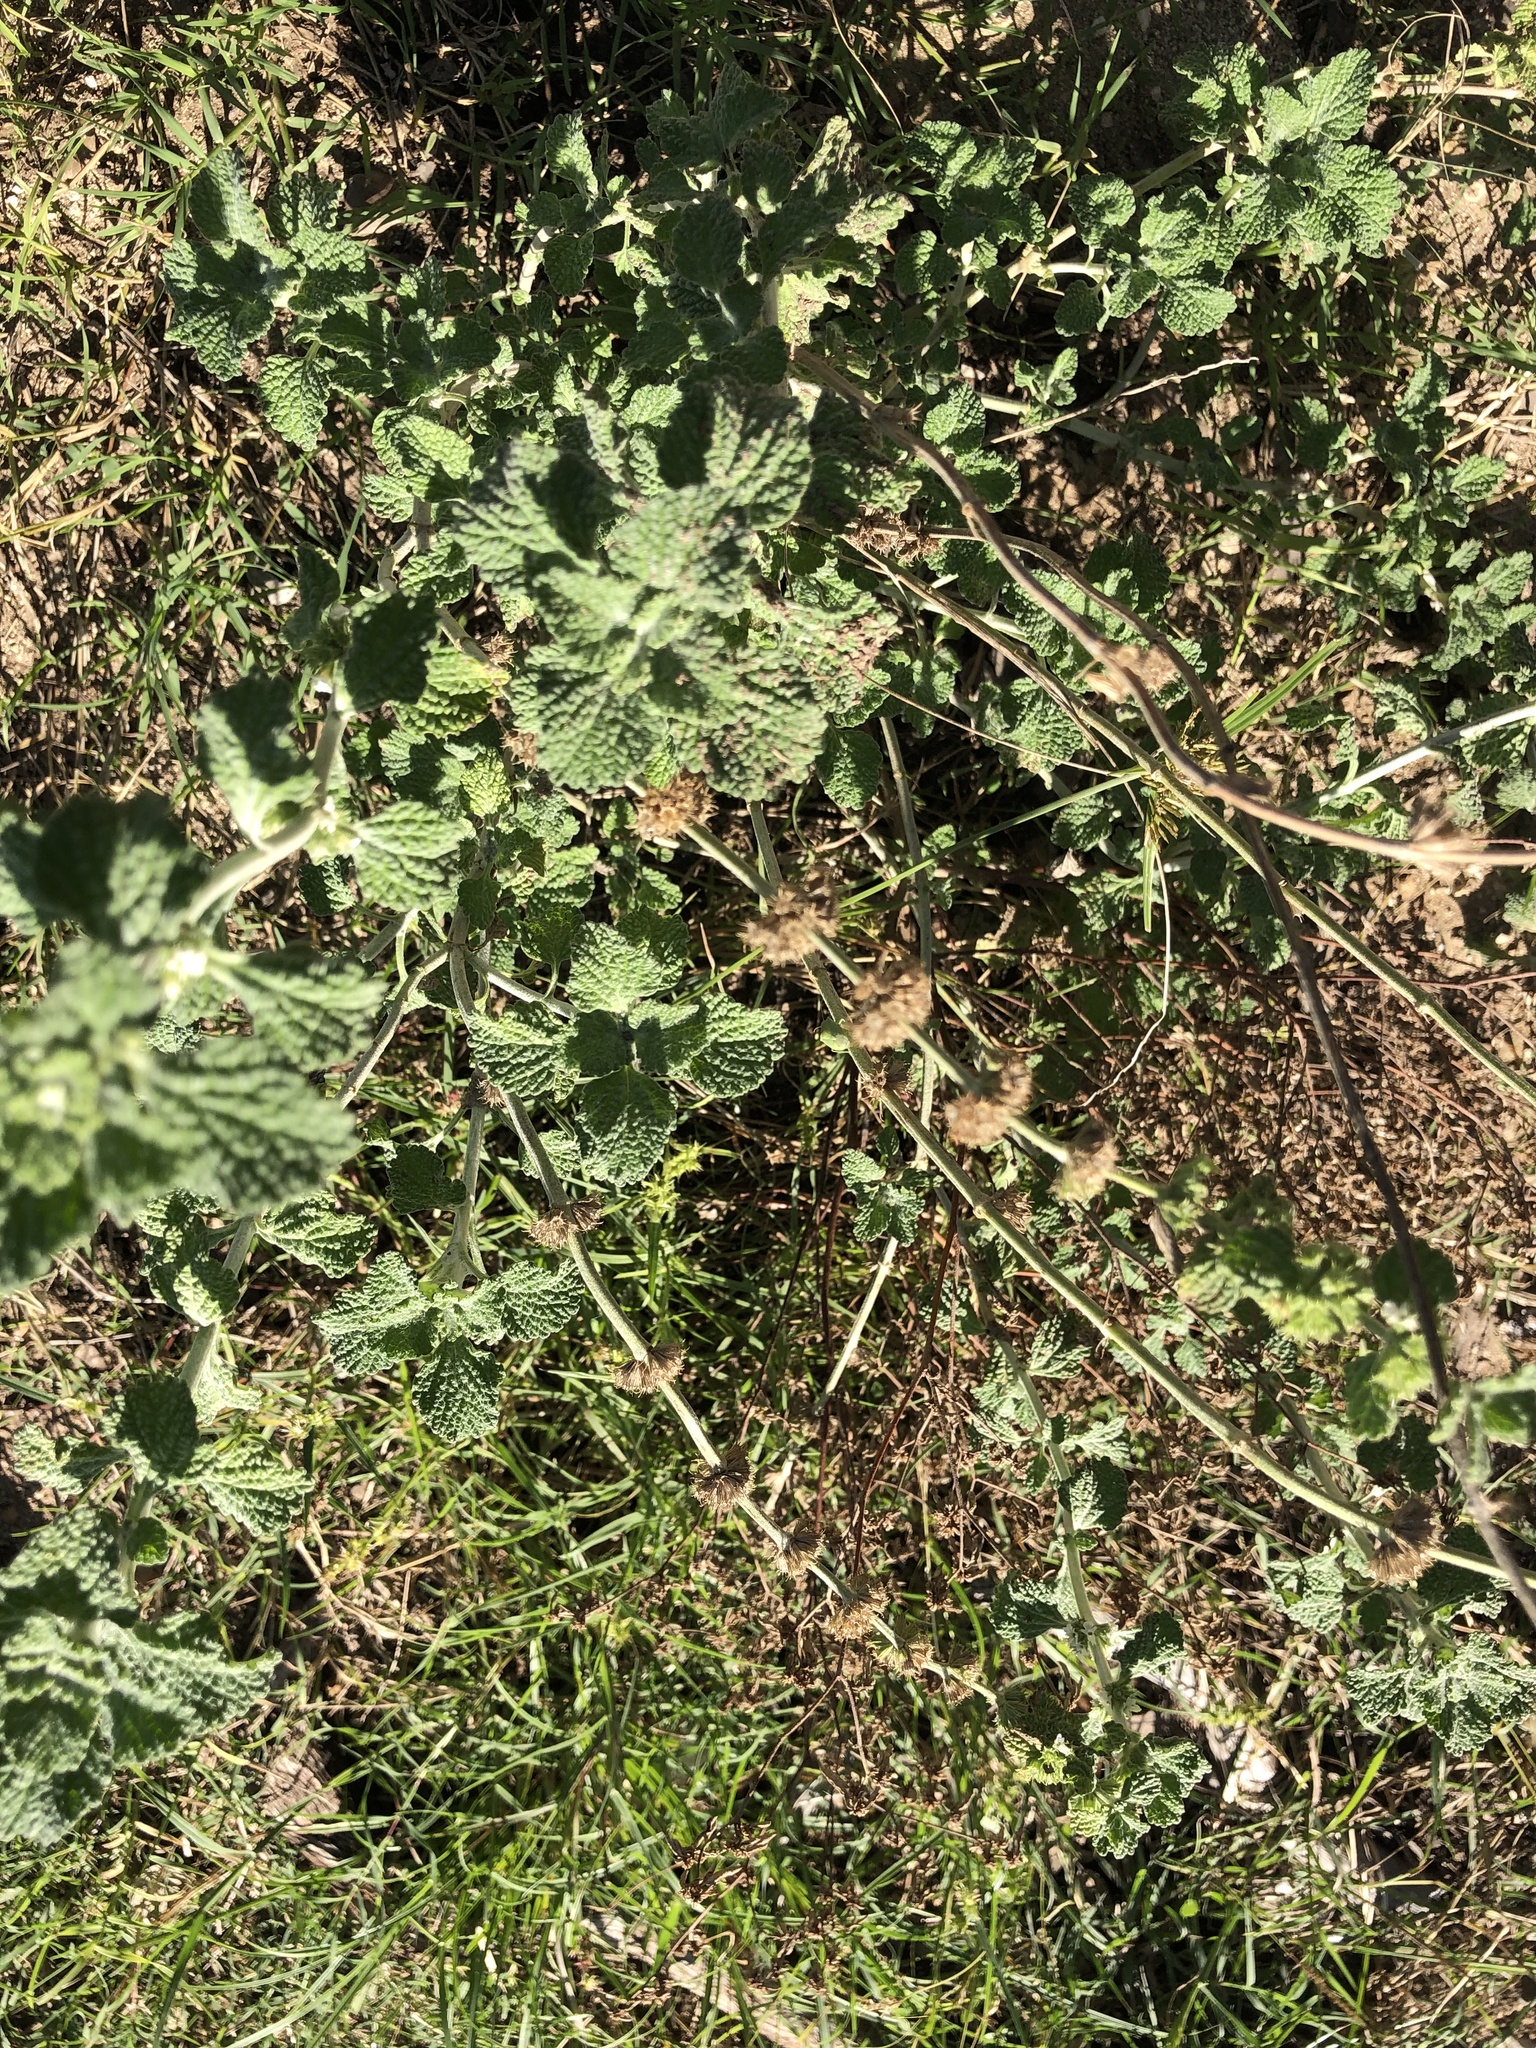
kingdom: Plantae
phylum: Tracheophyta
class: Magnoliopsida
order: Lamiales
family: Lamiaceae
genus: Marrubium
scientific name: Marrubium vulgare
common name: Horehound
